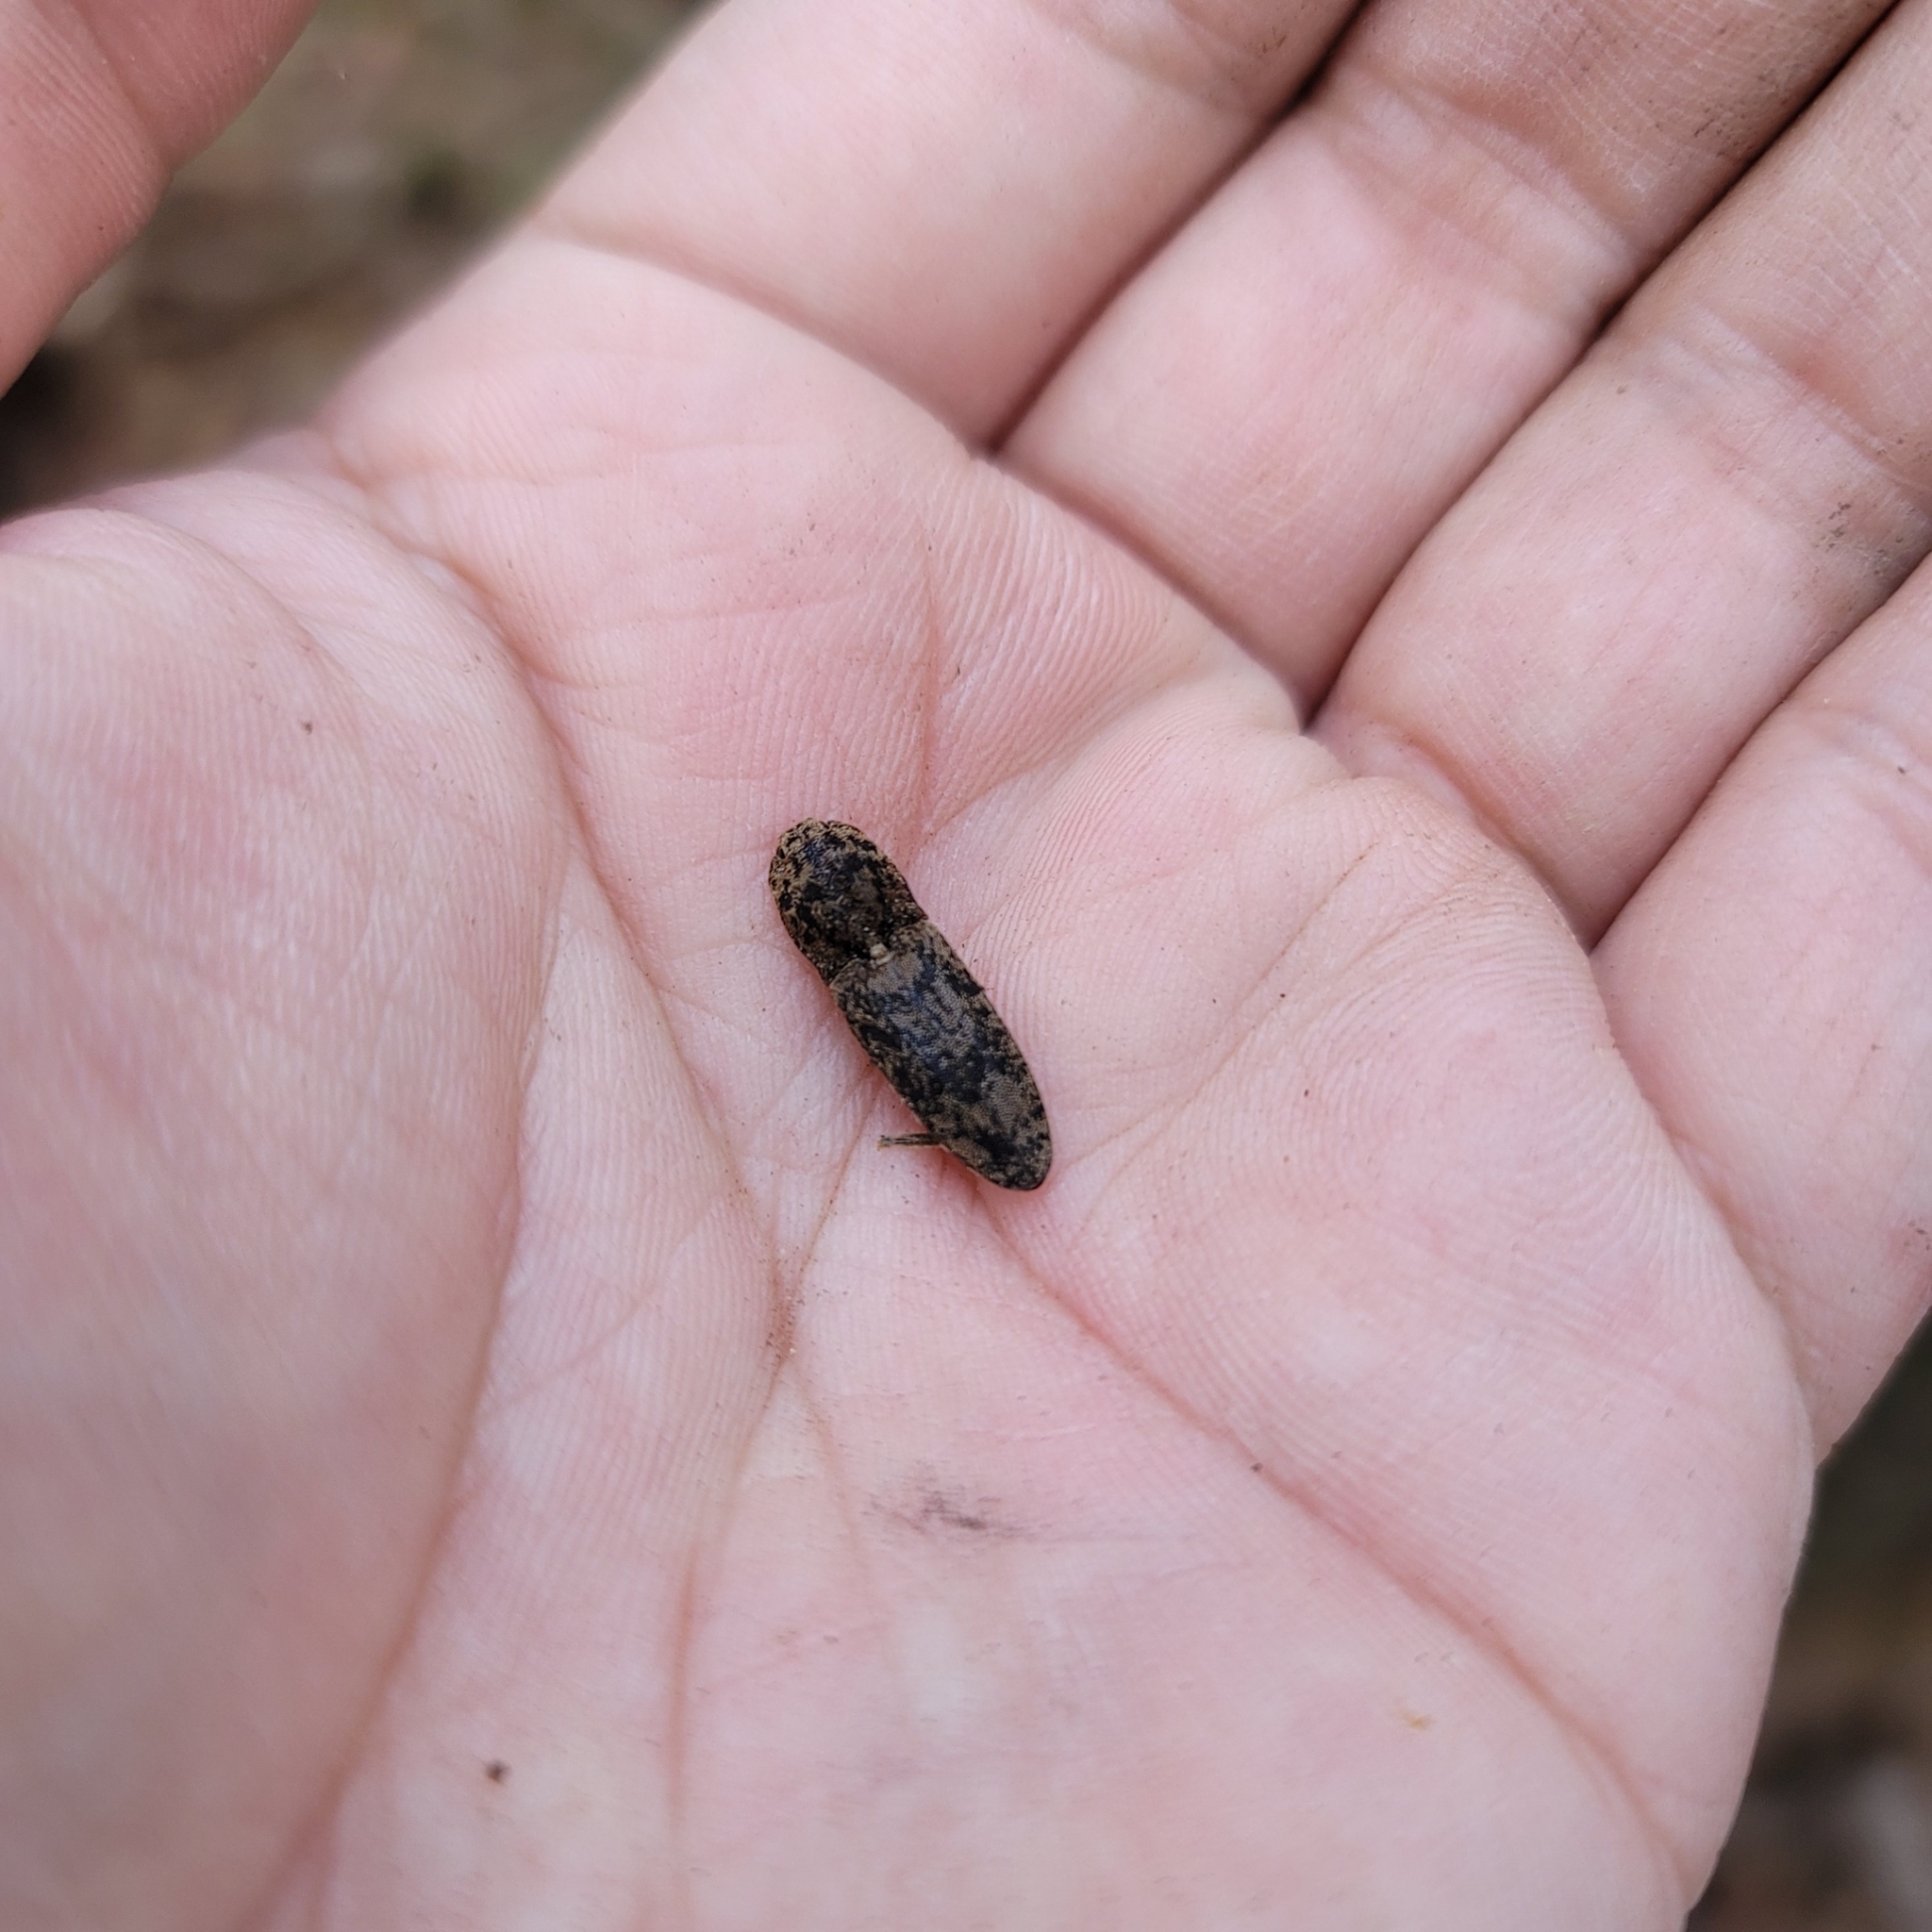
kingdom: Animalia
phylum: Arthropoda
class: Insecta
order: Coleoptera
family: Elateridae
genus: Lacon
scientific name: Lacon marmoratus
